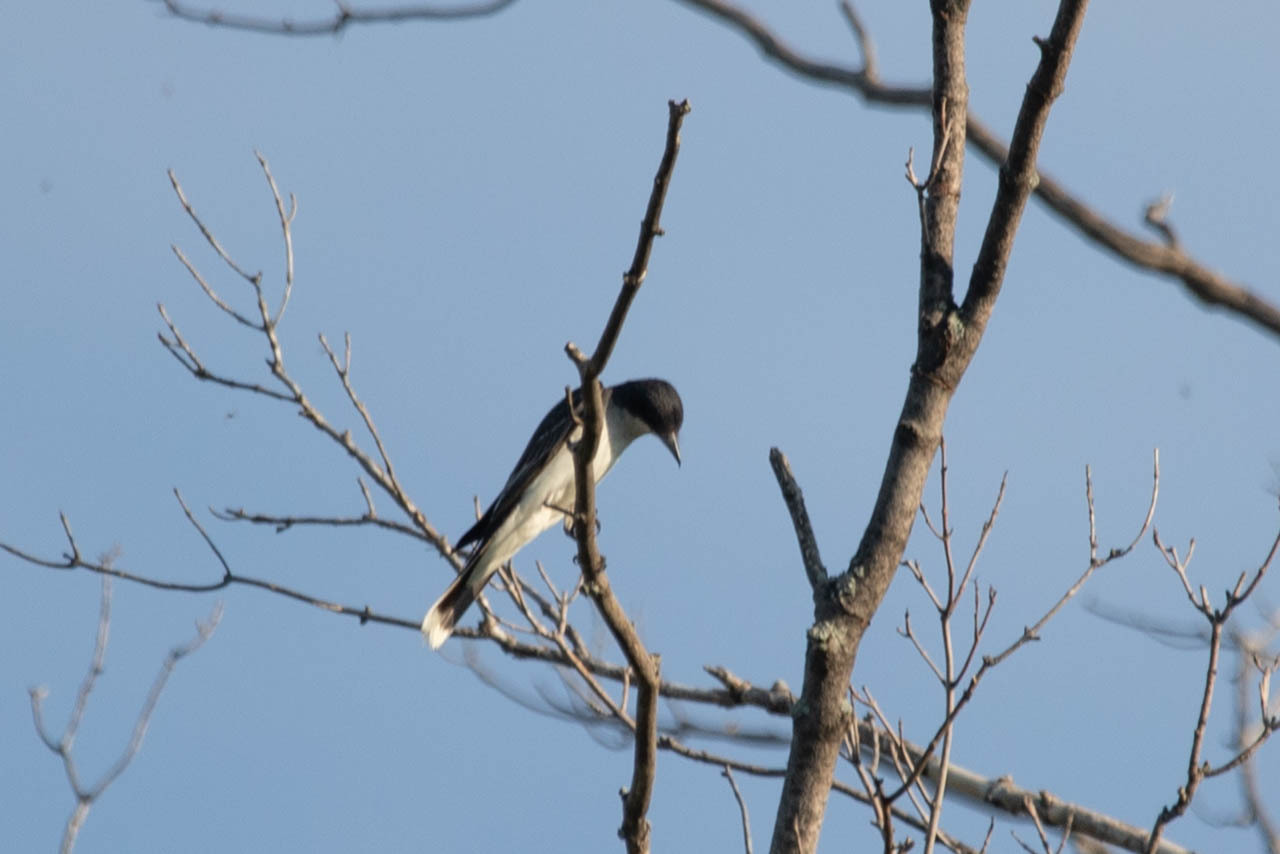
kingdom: Animalia
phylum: Chordata
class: Aves
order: Passeriformes
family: Tyrannidae
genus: Tyrannus
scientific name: Tyrannus tyrannus
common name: Eastern kingbird
